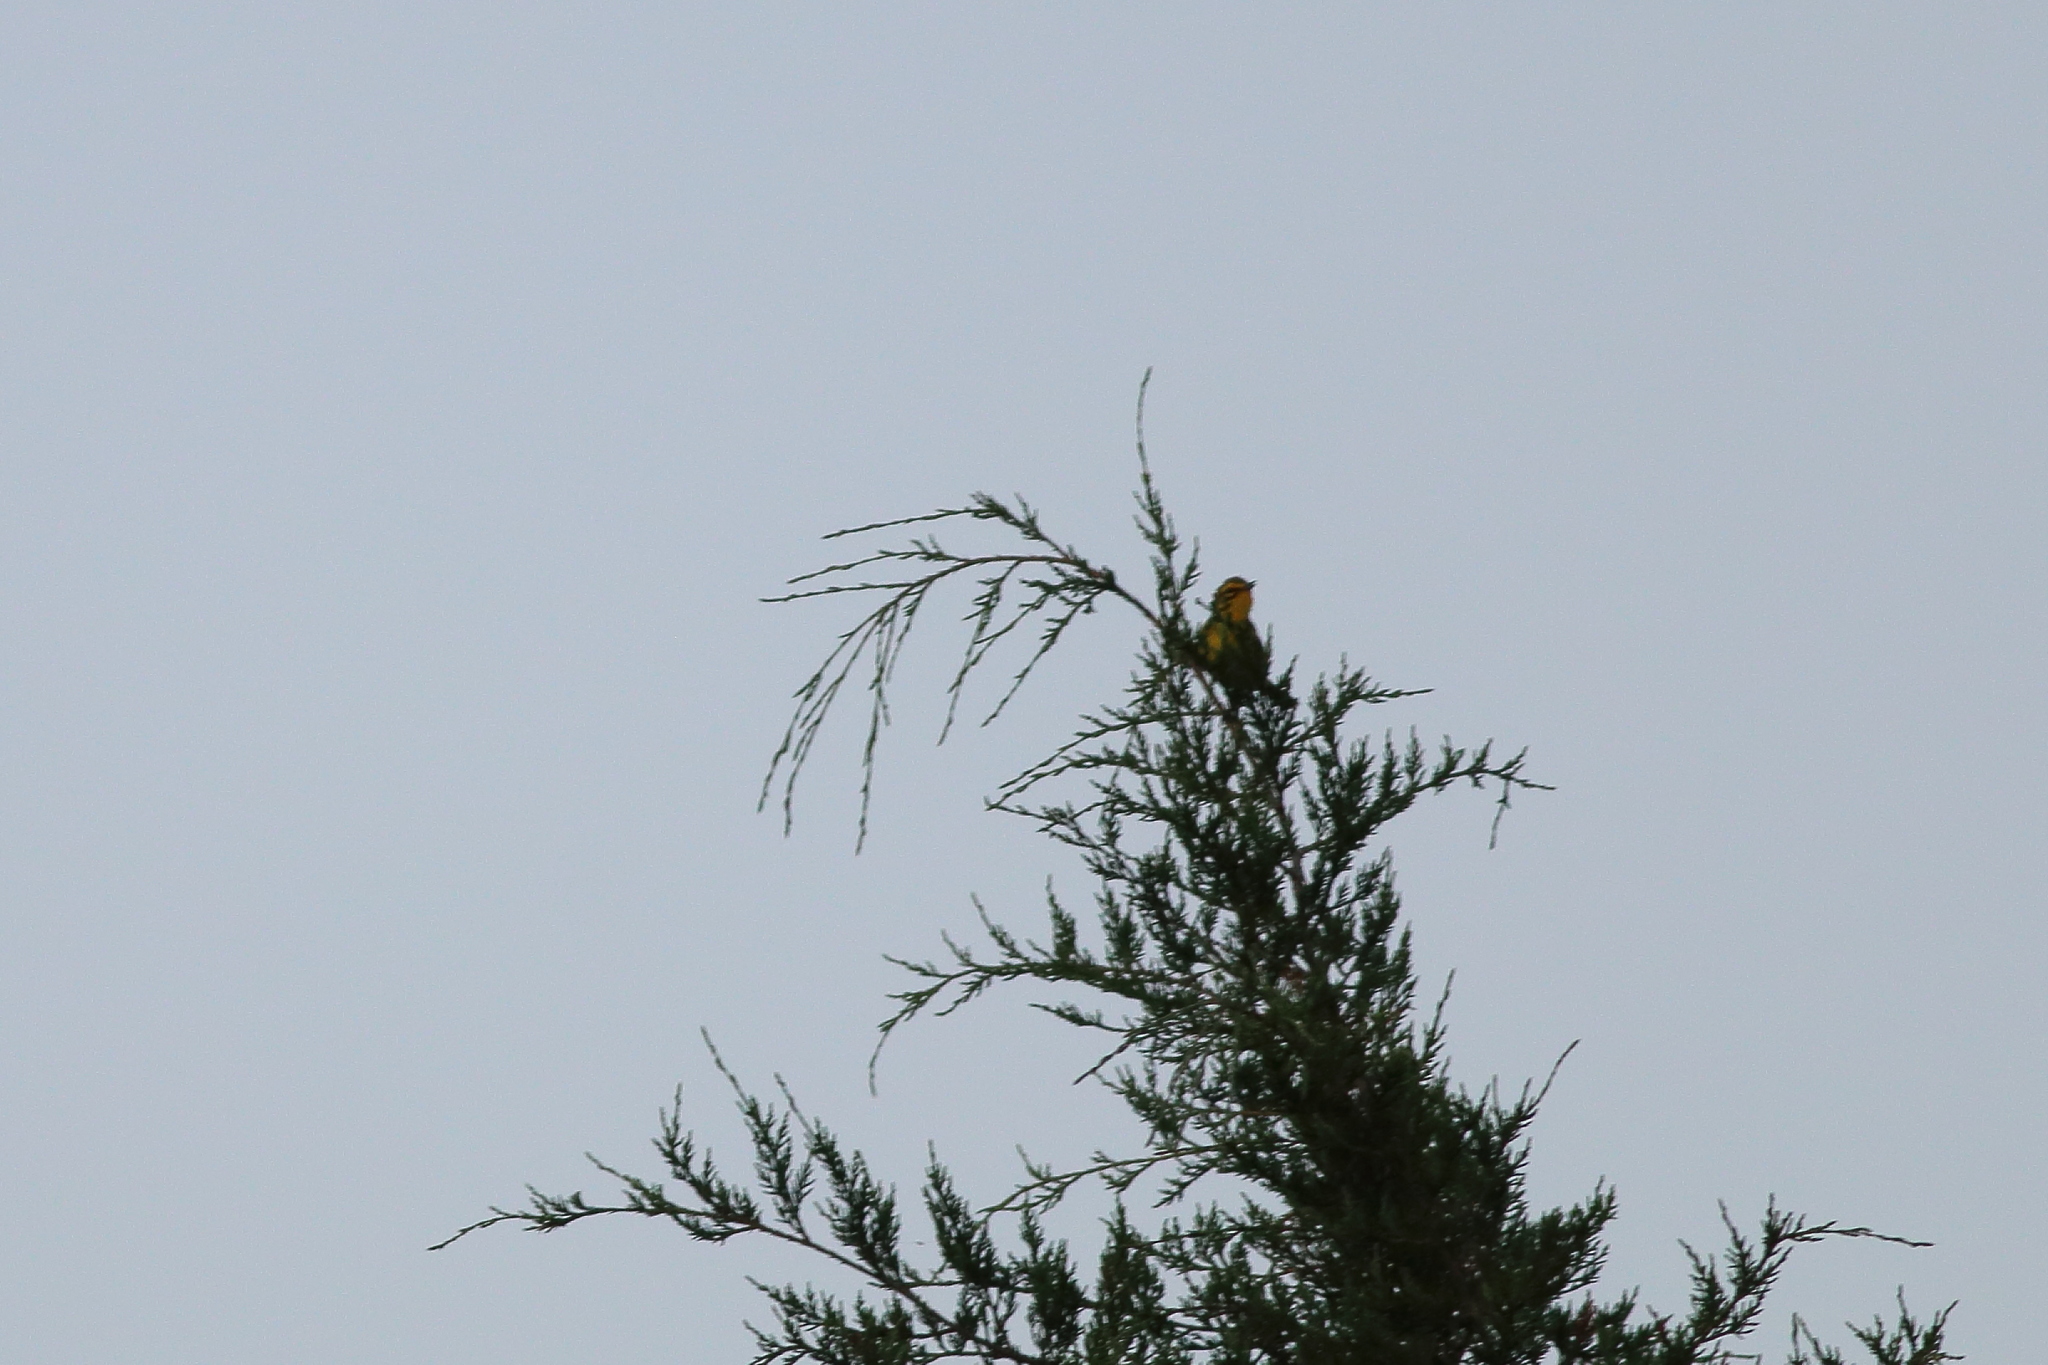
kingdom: Animalia
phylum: Chordata
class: Aves
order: Passeriformes
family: Parulidae
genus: Setophaga
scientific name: Setophaga discolor
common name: Prairie warbler
